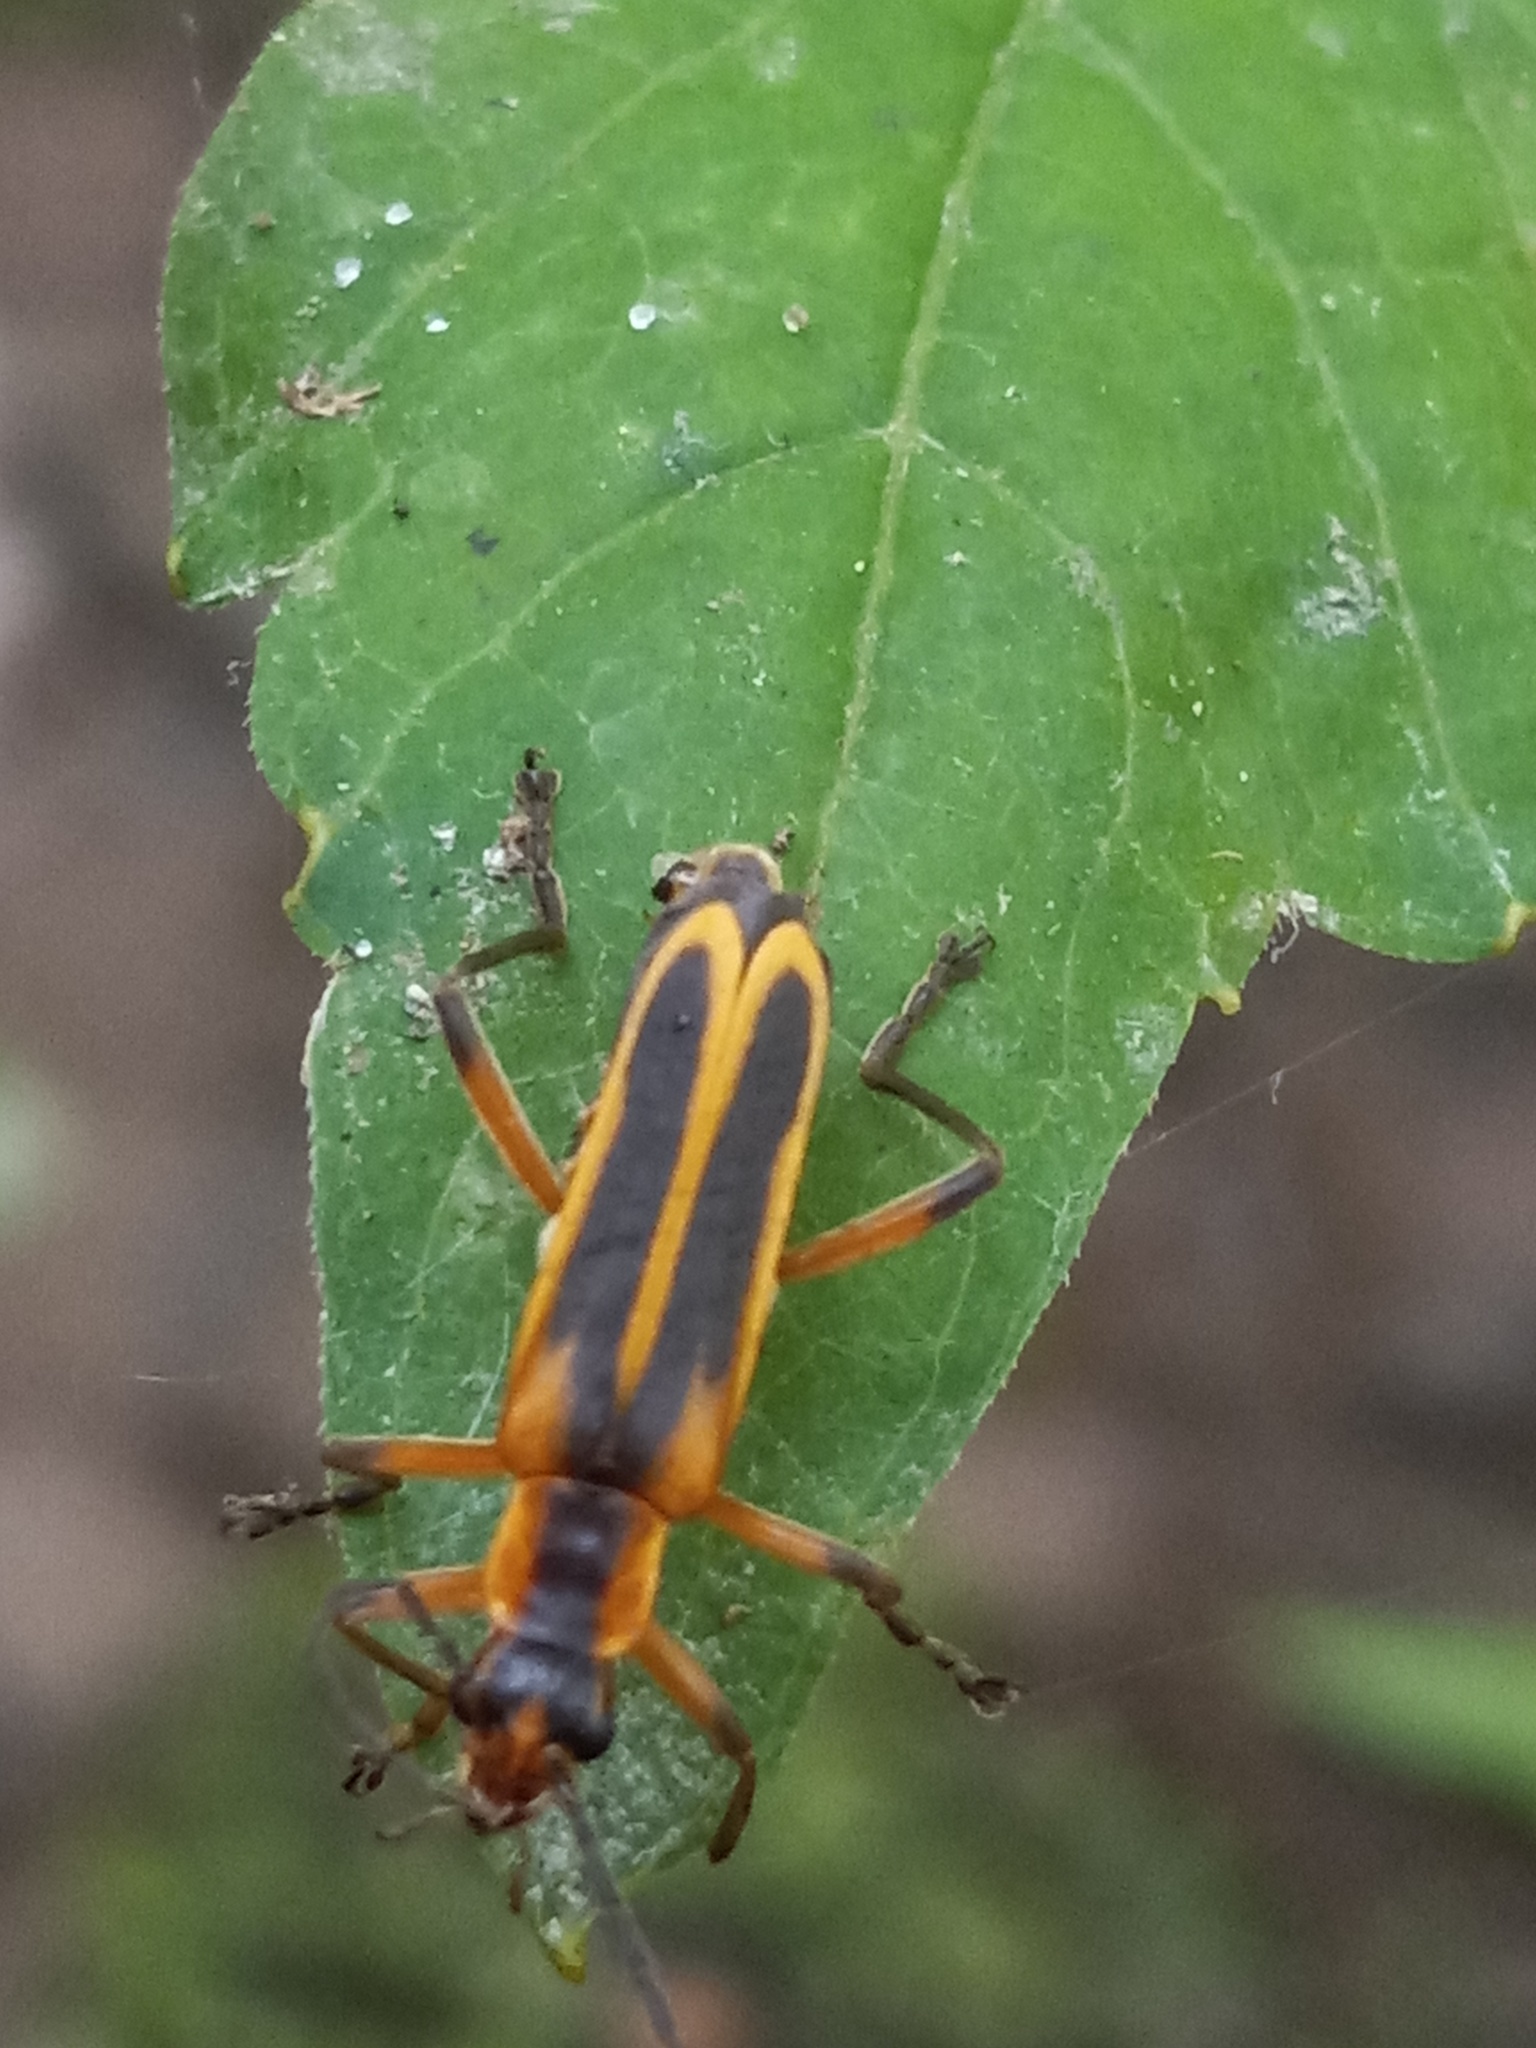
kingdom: Animalia
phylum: Arthropoda
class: Insecta
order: Coleoptera
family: Cantharidae
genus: Chauliognathus
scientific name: Chauliognathus marginatus
